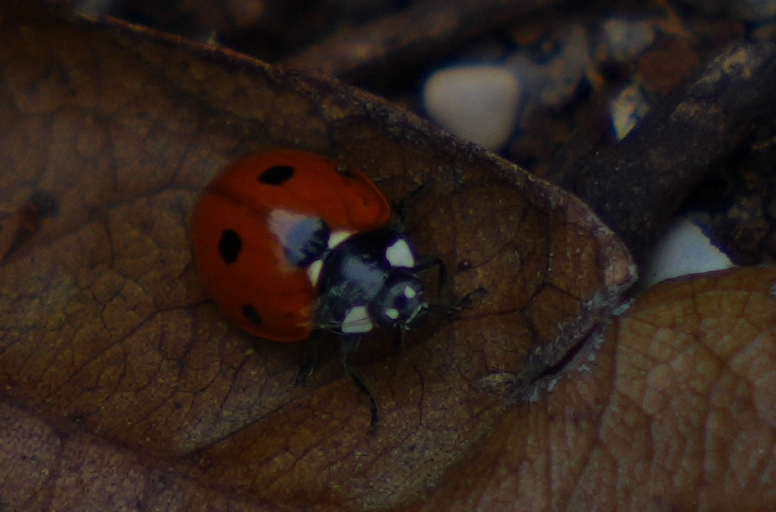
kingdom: Animalia
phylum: Arthropoda
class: Insecta
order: Coleoptera
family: Coccinellidae
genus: Coccinella
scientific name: Coccinella septempunctata
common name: Sevenspotted lady beetle
